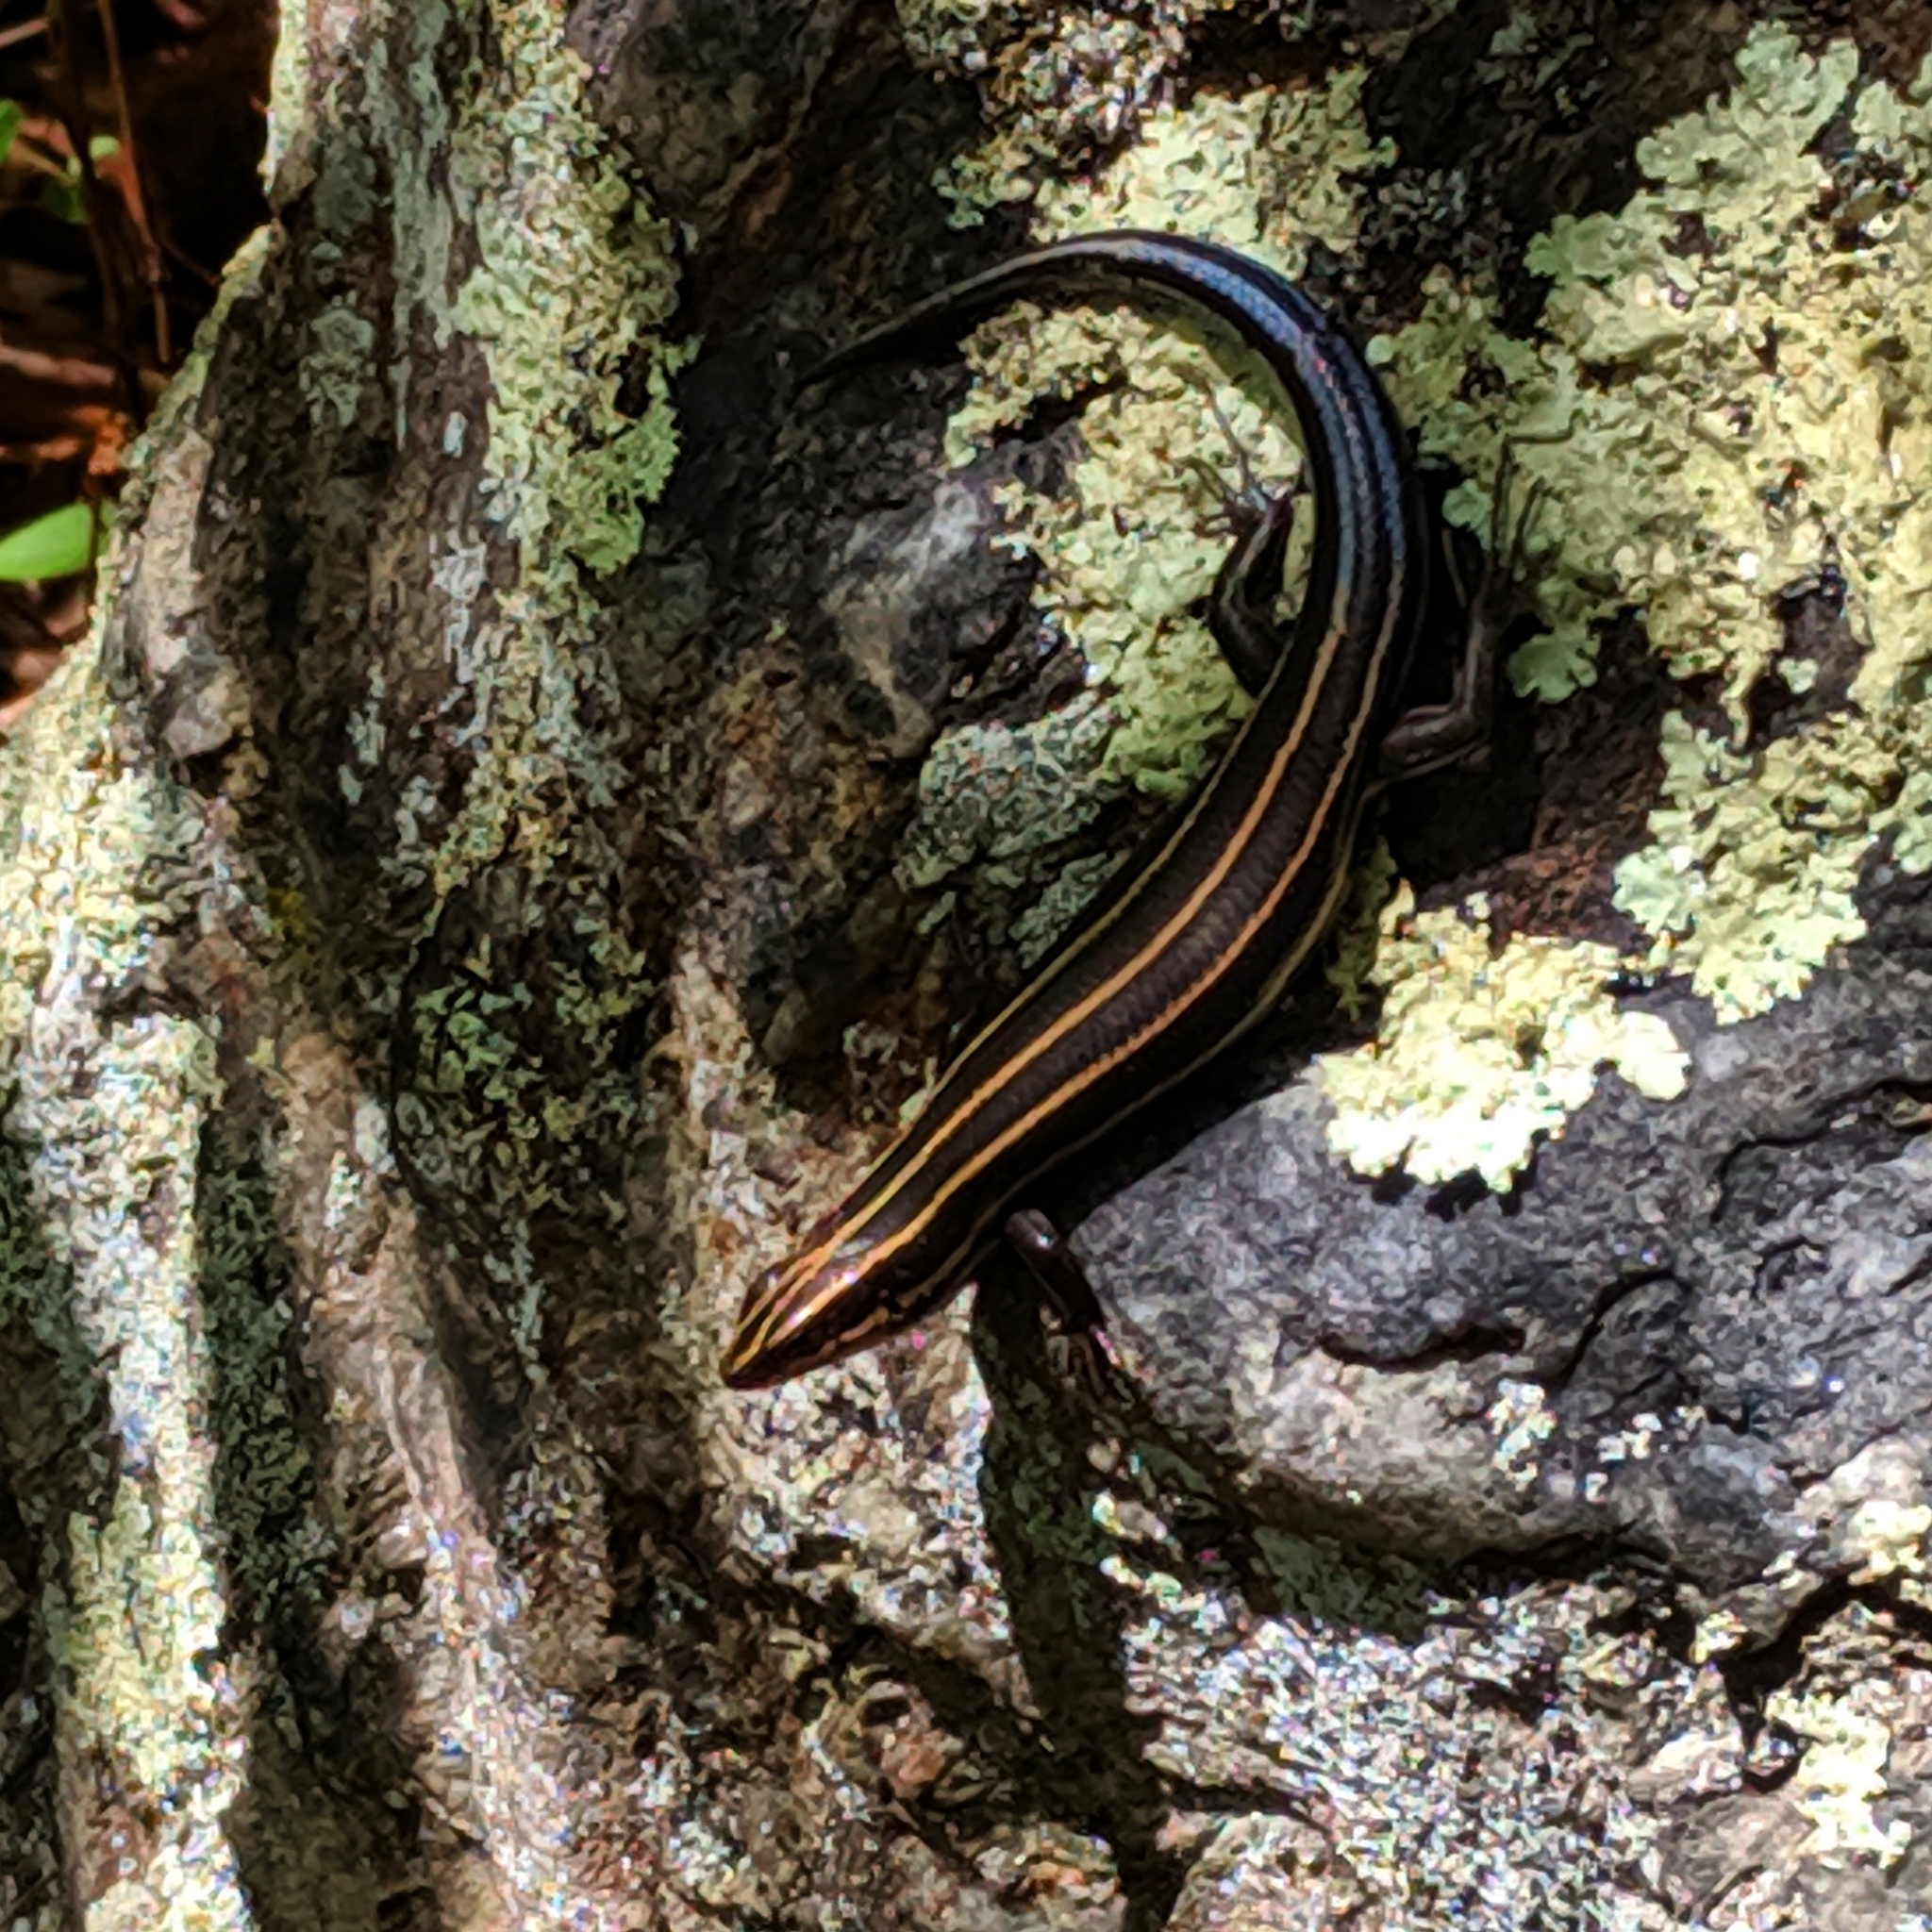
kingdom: Animalia
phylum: Chordata
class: Squamata
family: Scincidae
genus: Plestiodon
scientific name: Plestiodon laticeps
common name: Broadhead skink
